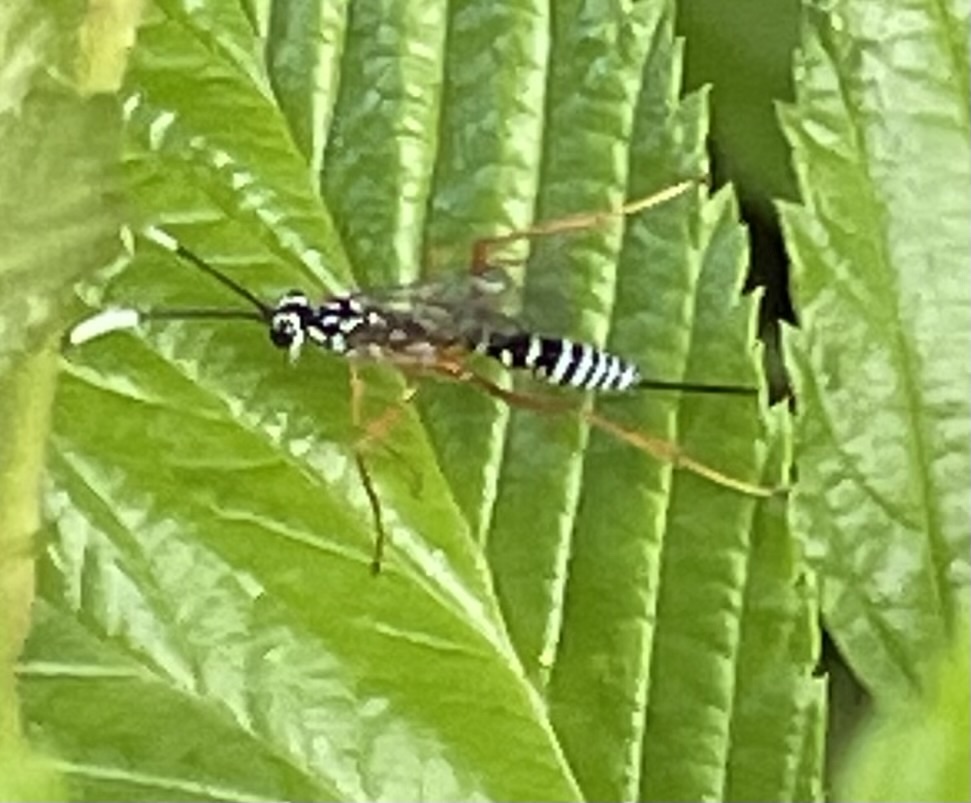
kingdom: Animalia
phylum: Arthropoda
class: Insecta
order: Hymenoptera
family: Ichneumonidae
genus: Polycyrtus
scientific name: Polycyrtus neglectus
